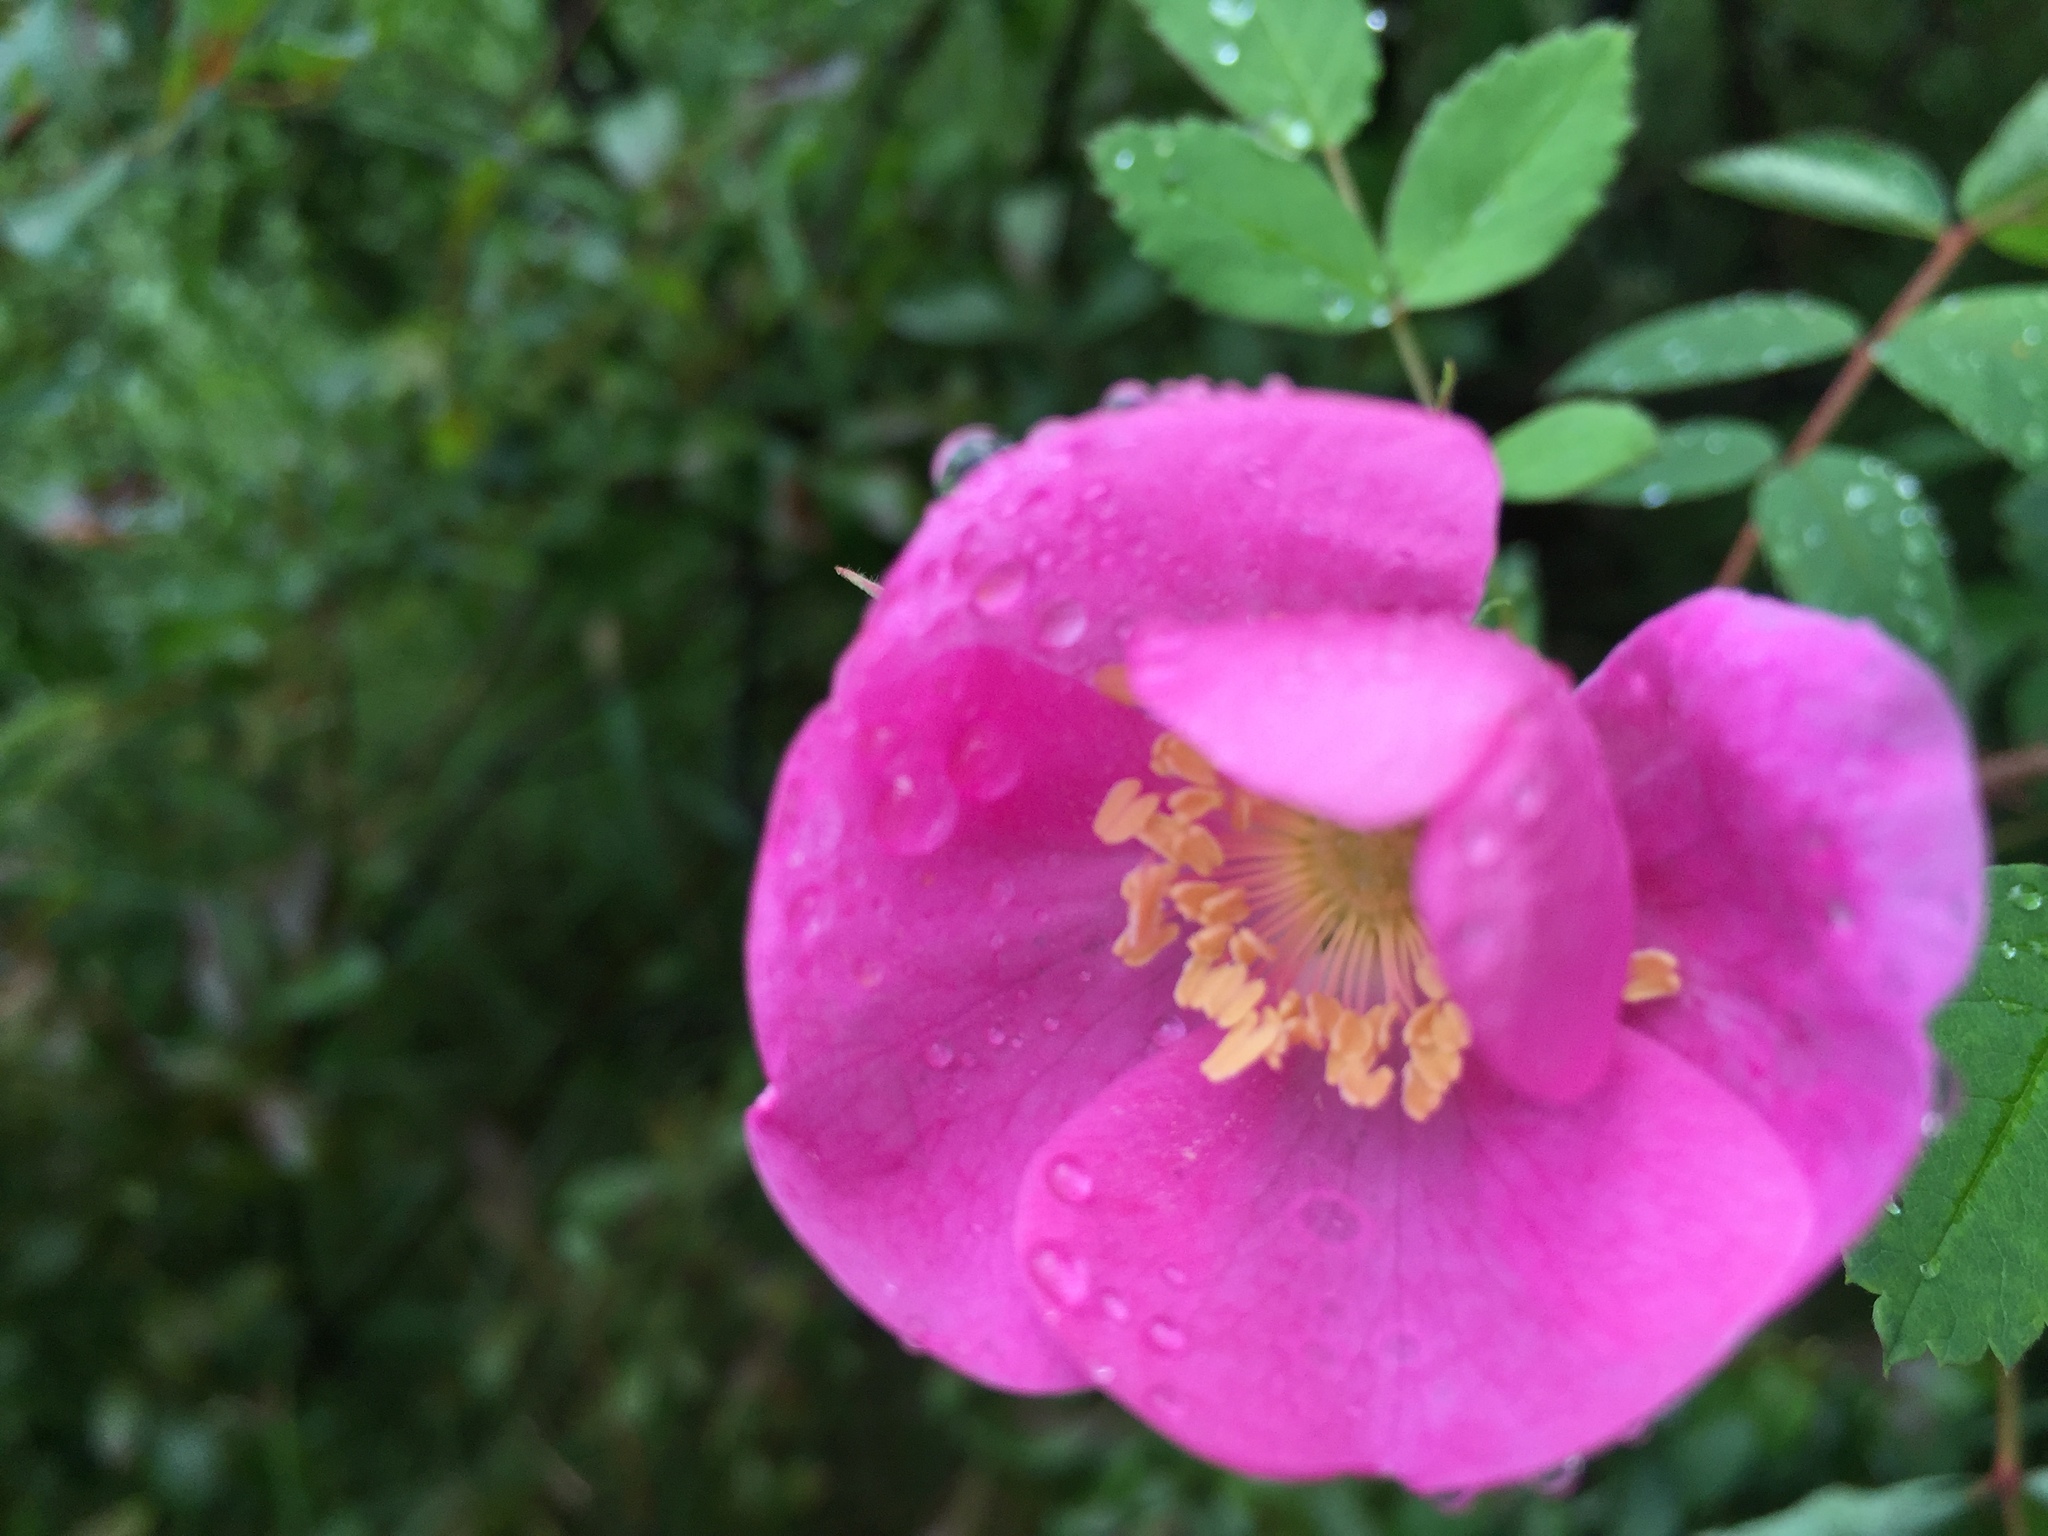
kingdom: Plantae
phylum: Tracheophyta
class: Magnoliopsida
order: Rosales
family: Rosaceae
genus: Rosa
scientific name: Rosa acicularis
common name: Prickly rose
